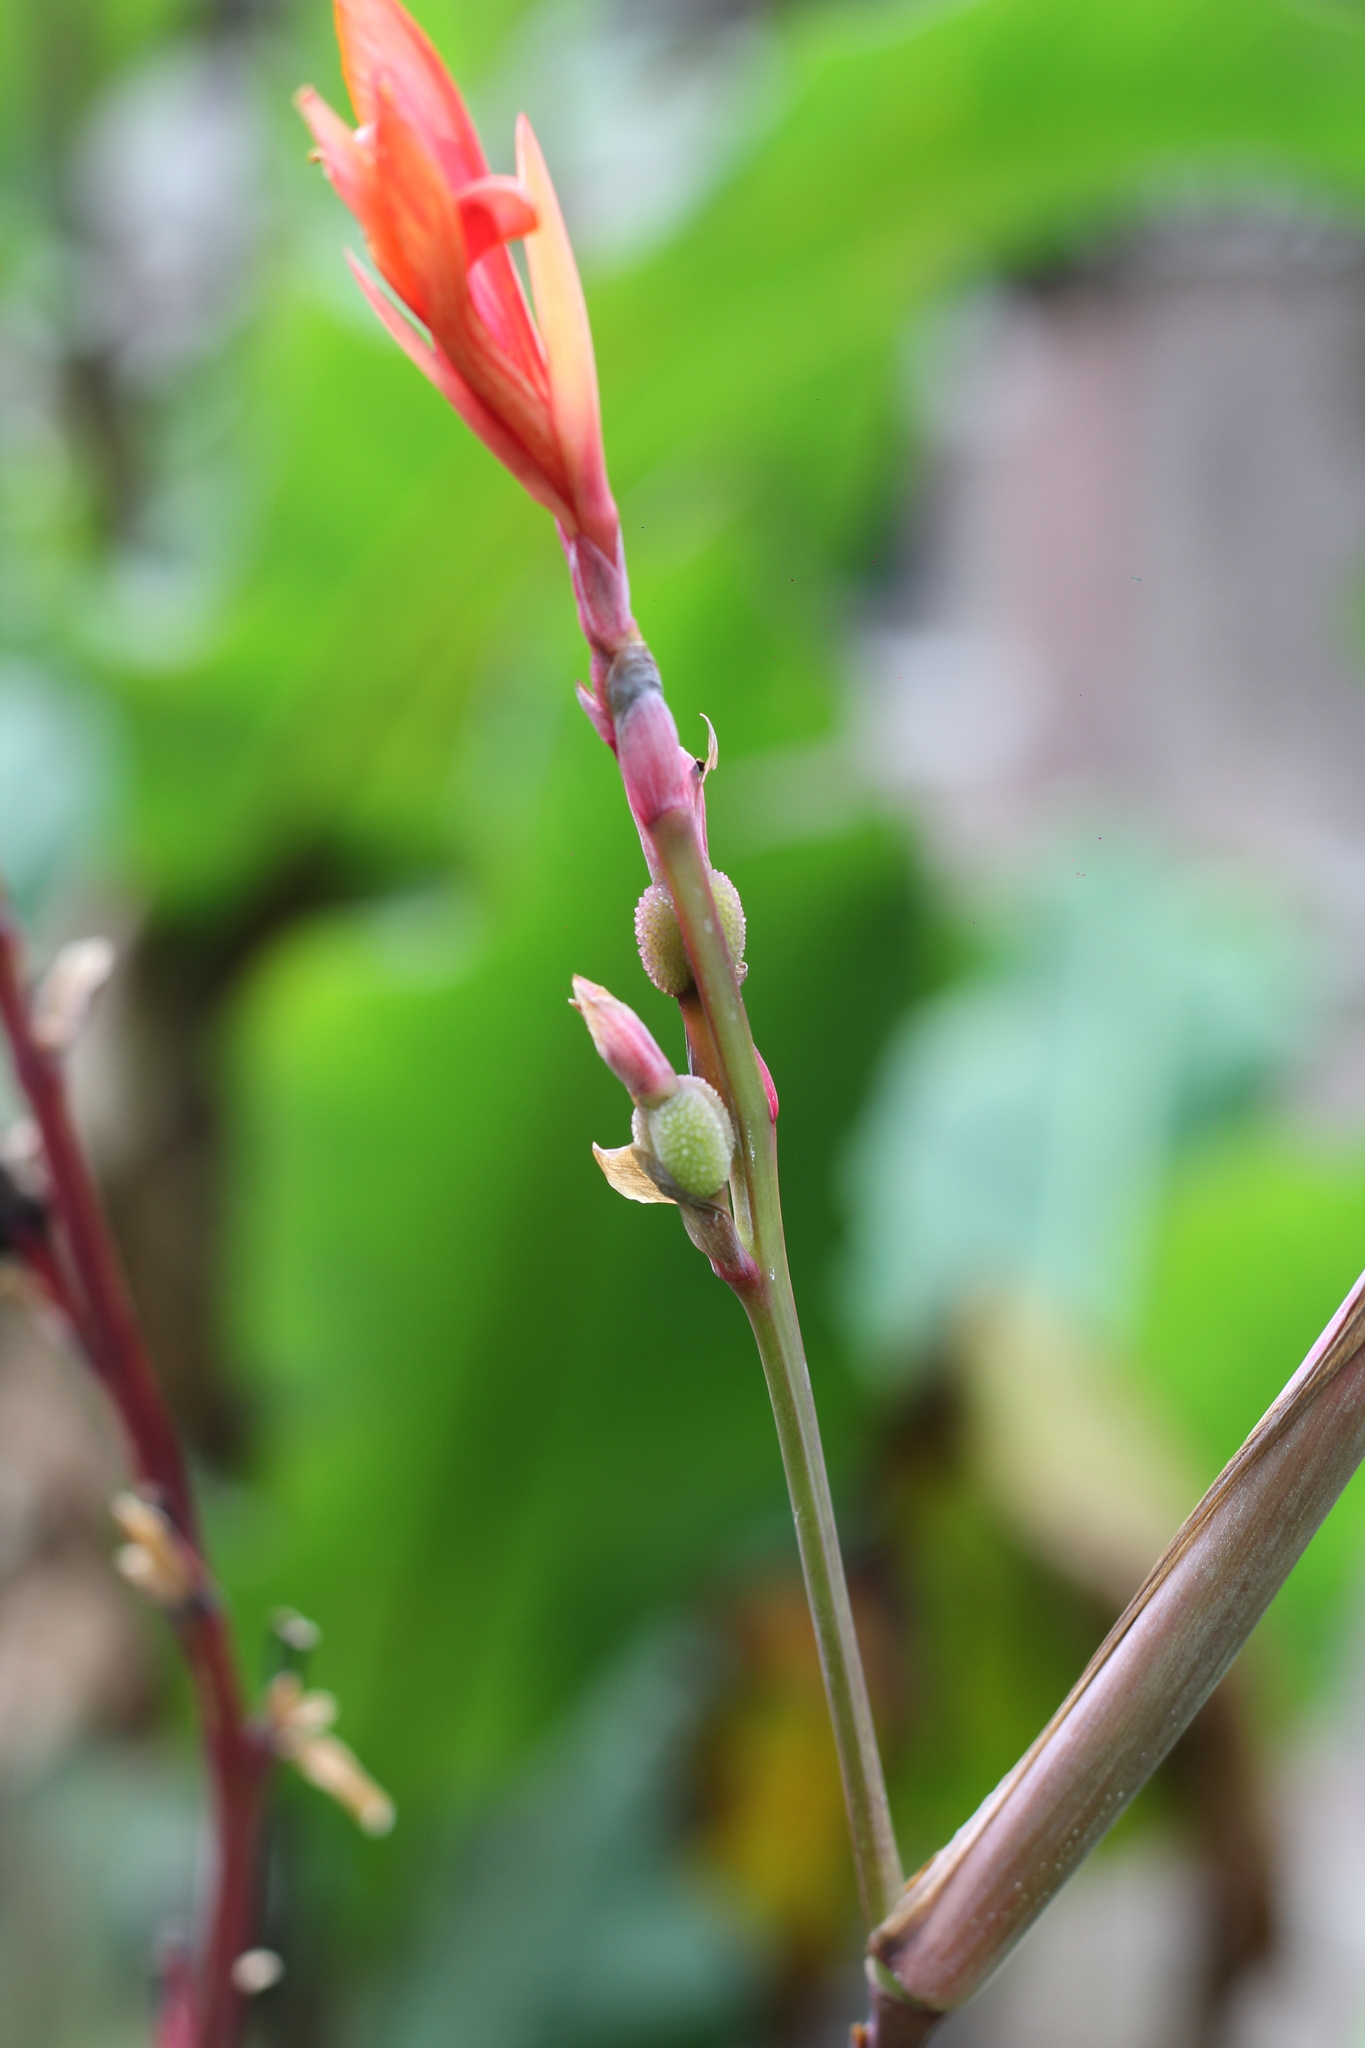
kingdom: Plantae
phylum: Tracheophyta
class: Liliopsida
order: Zingiberales
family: Cannaceae
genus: Canna
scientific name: Canna indica
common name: Indian shot
